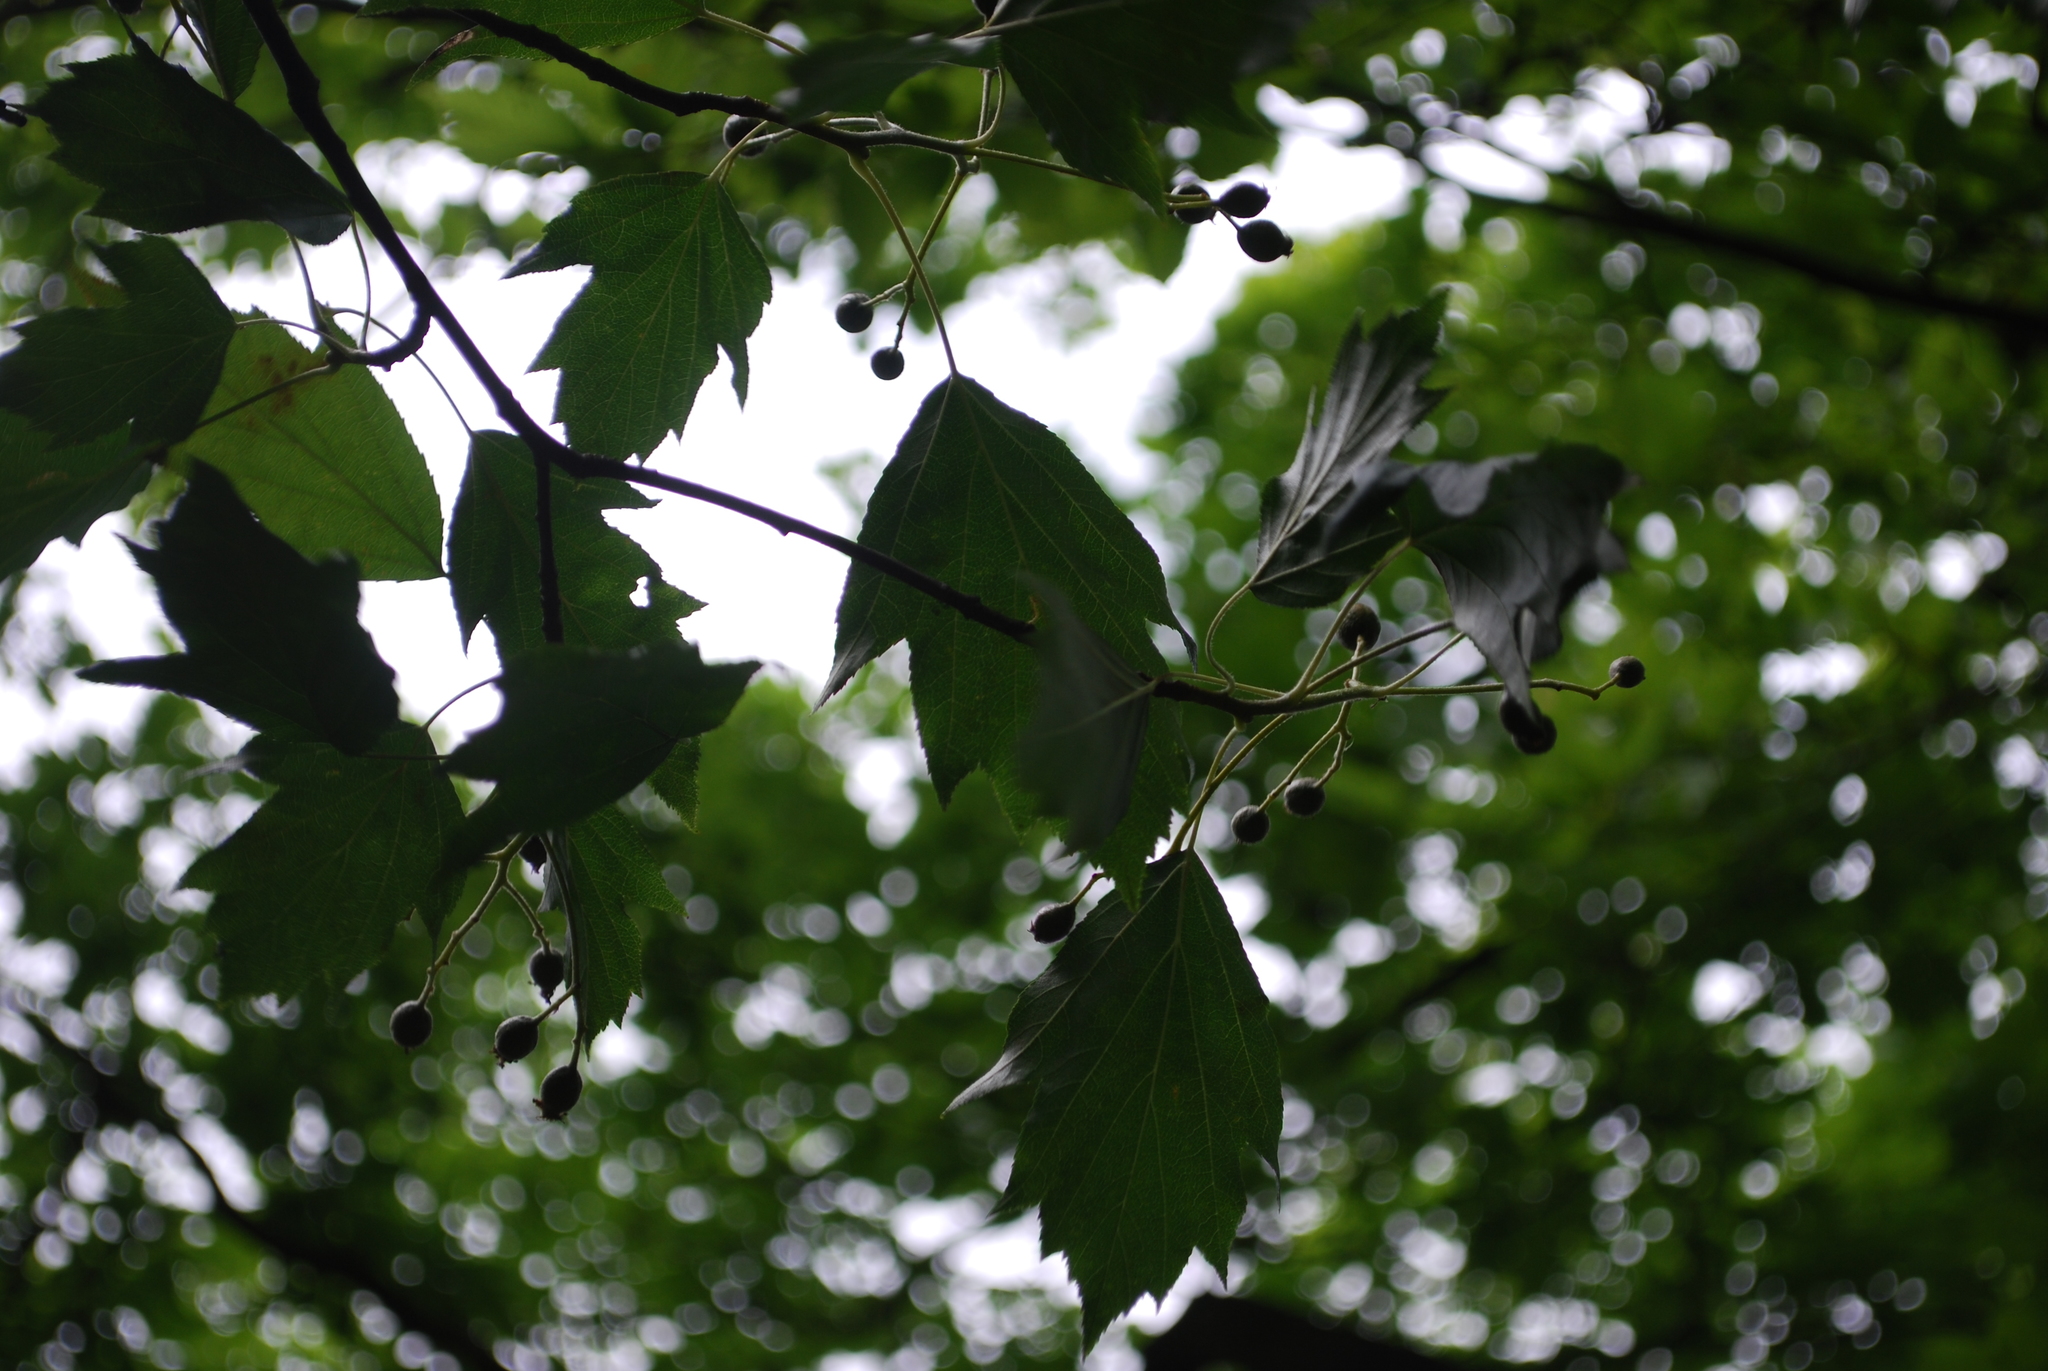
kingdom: Plantae
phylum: Tracheophyta
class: Magnoliopsida
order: Rosales
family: Rosaceae
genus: Torminalis
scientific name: Torminalis glaberrima
